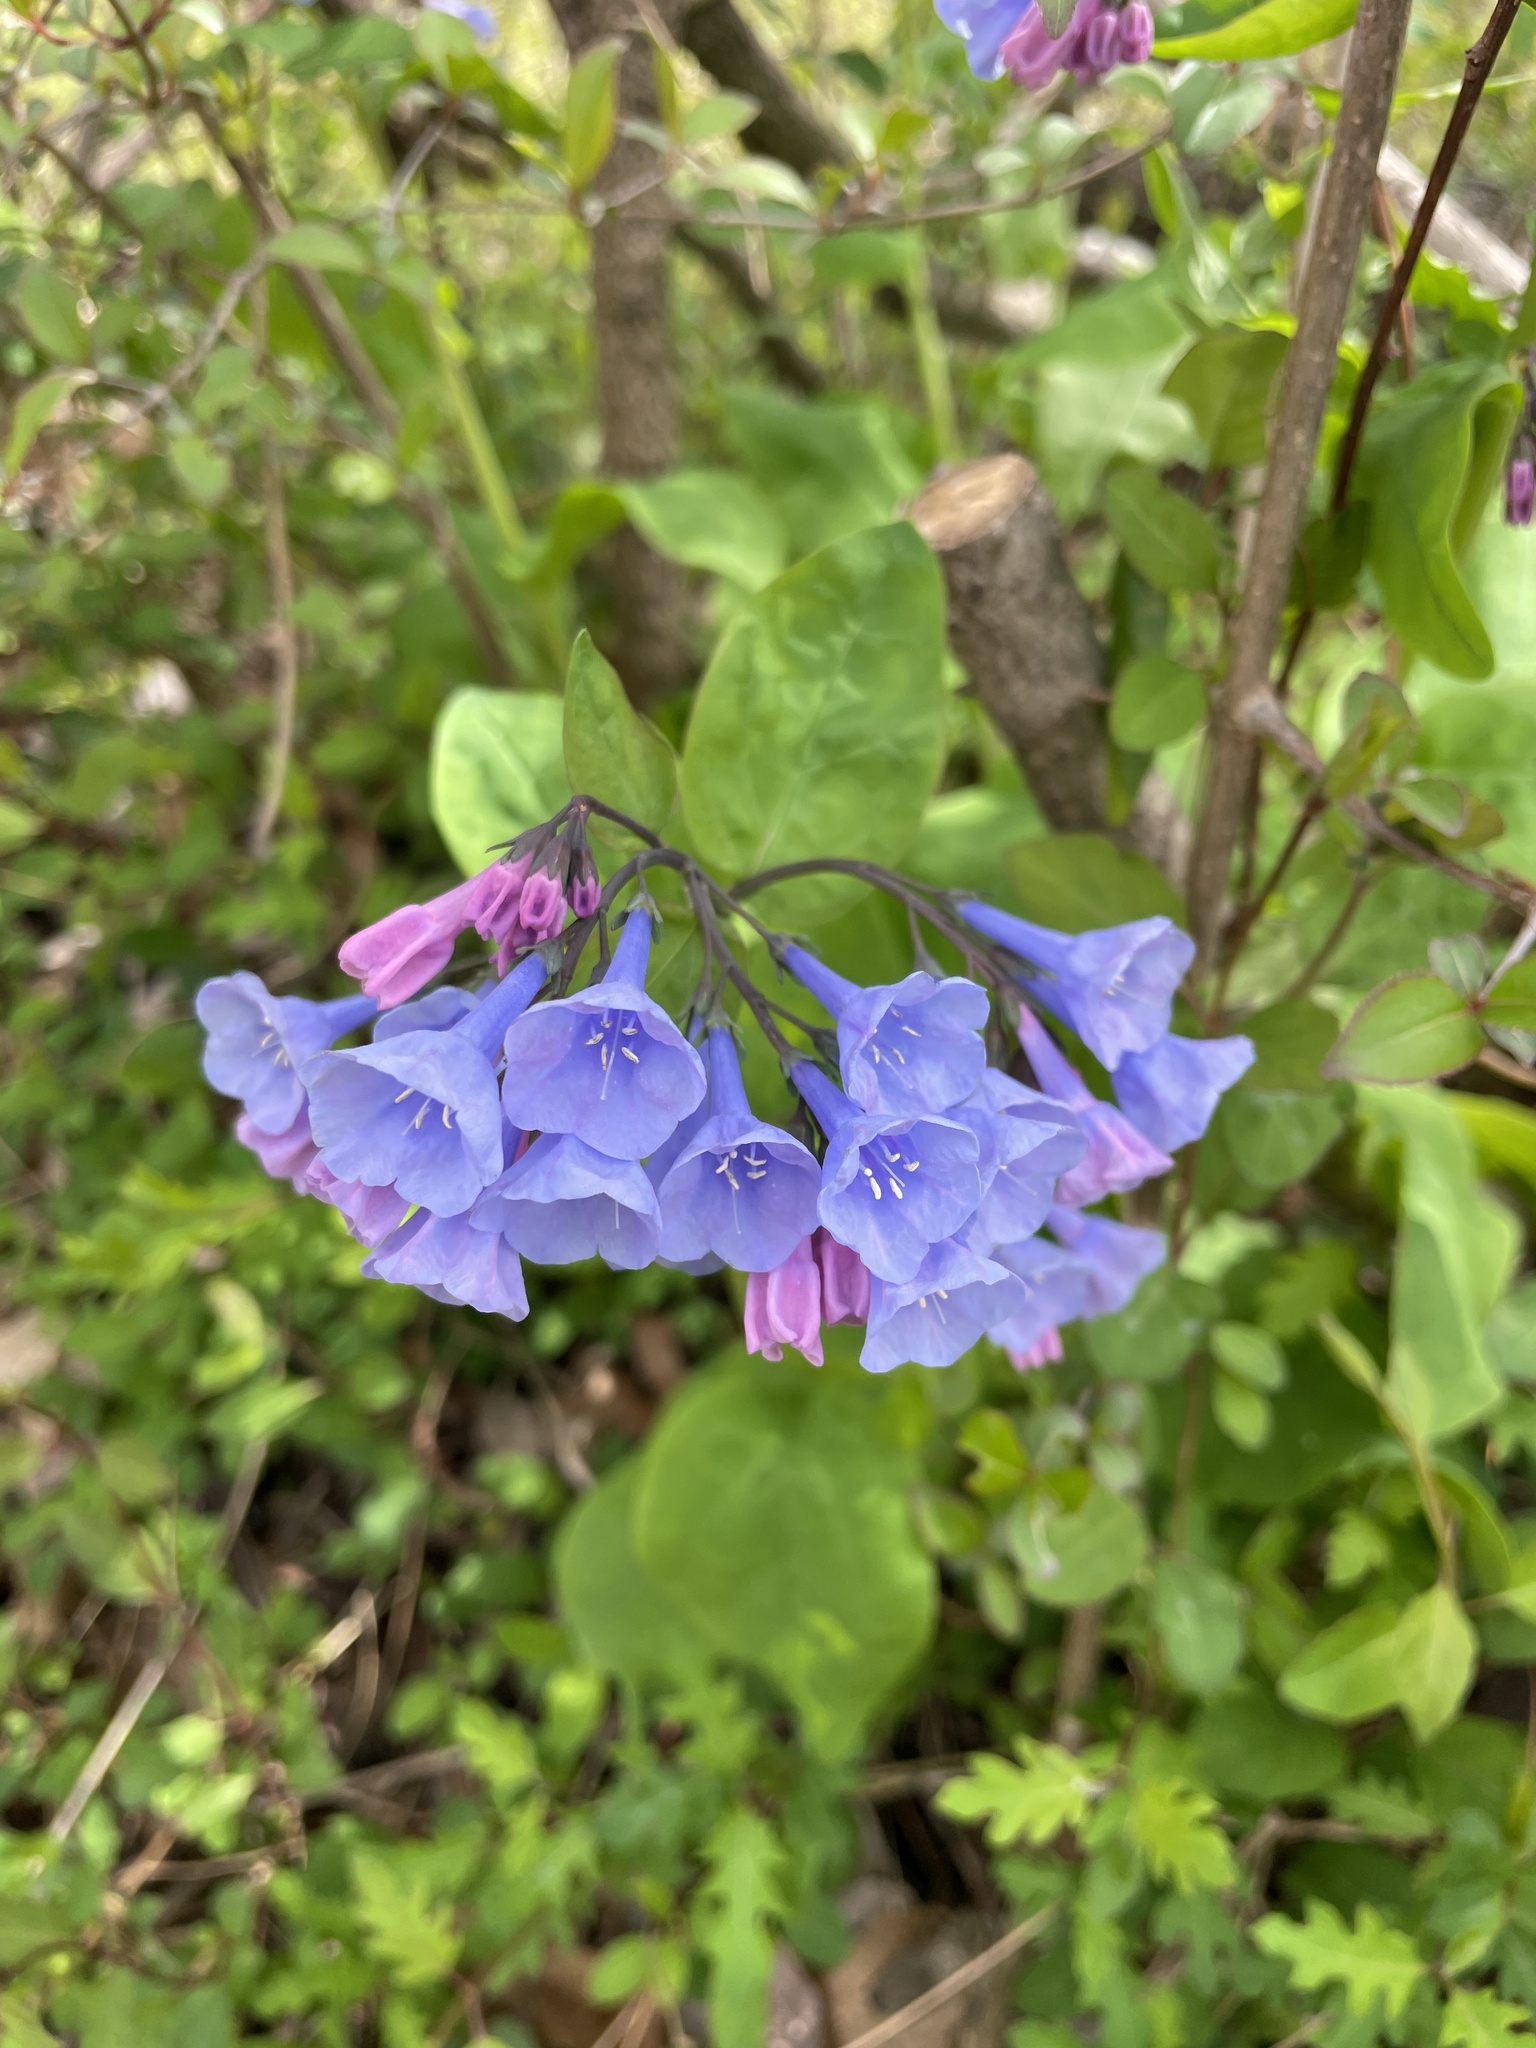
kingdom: Plantae
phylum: Tracheophyta
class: Magnoliopsida
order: Boraginales
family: Boraginaceae
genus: Mertensia
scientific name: Mertensia virginica
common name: Virginia bluebells
